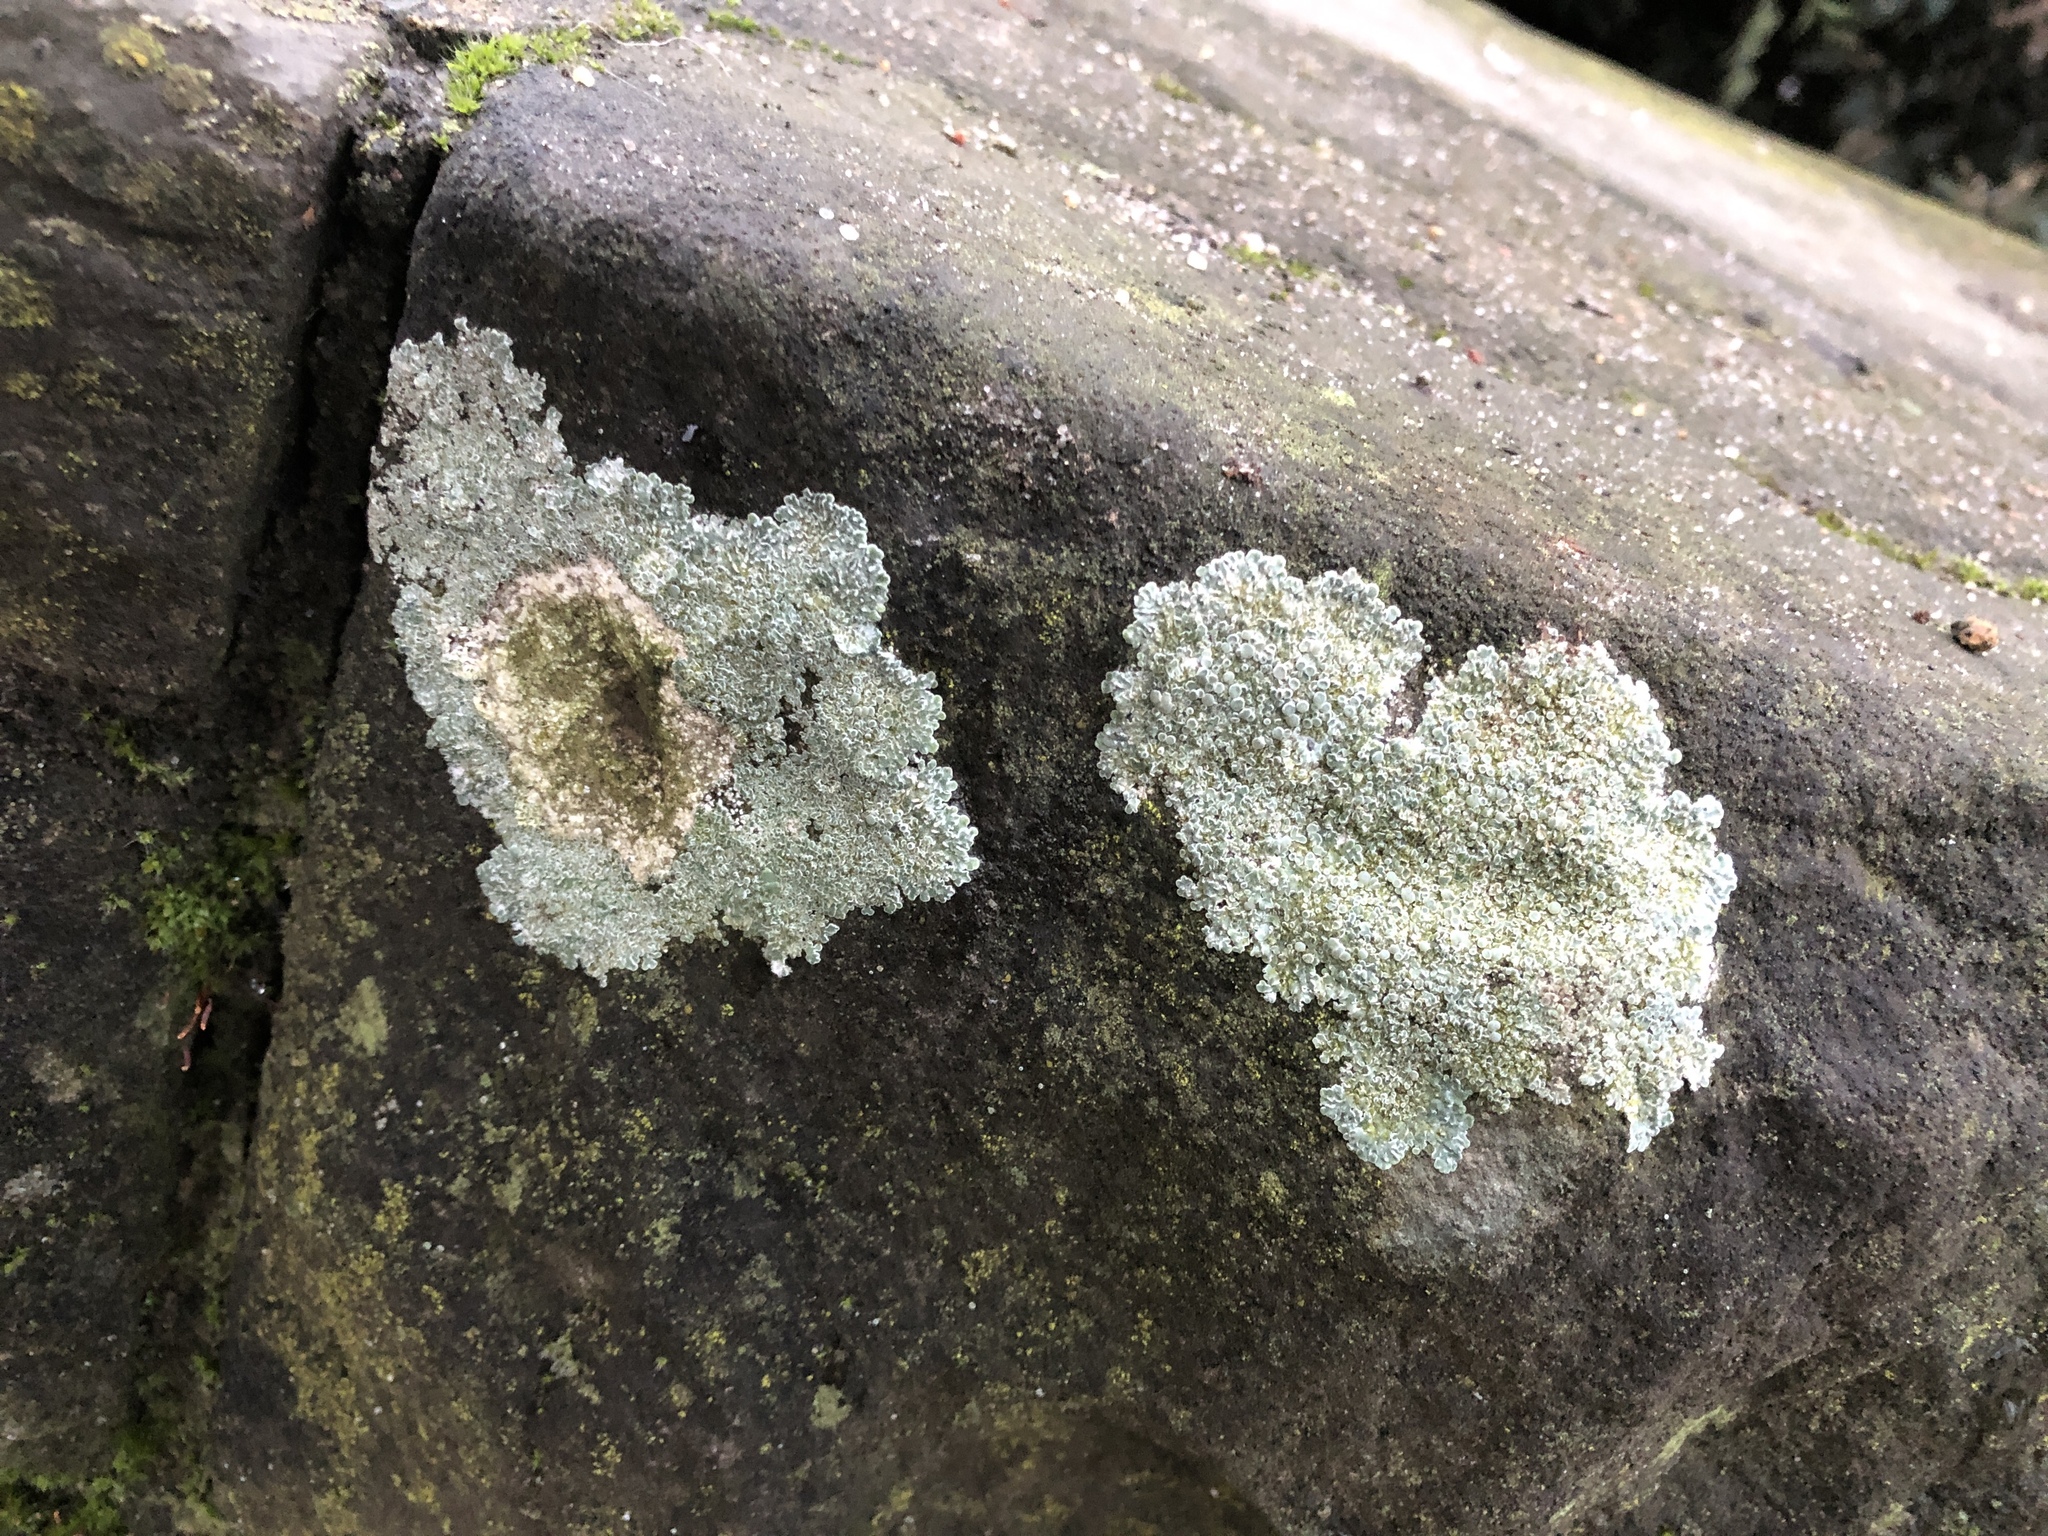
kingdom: Fungi
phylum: Ascomycota
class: Lecanoromycetes
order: Lecanorales
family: Lecanoraceae
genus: Protoparmeliopsis
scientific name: Protoparmeliopsis muralis
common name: Stonewall rim lichen
